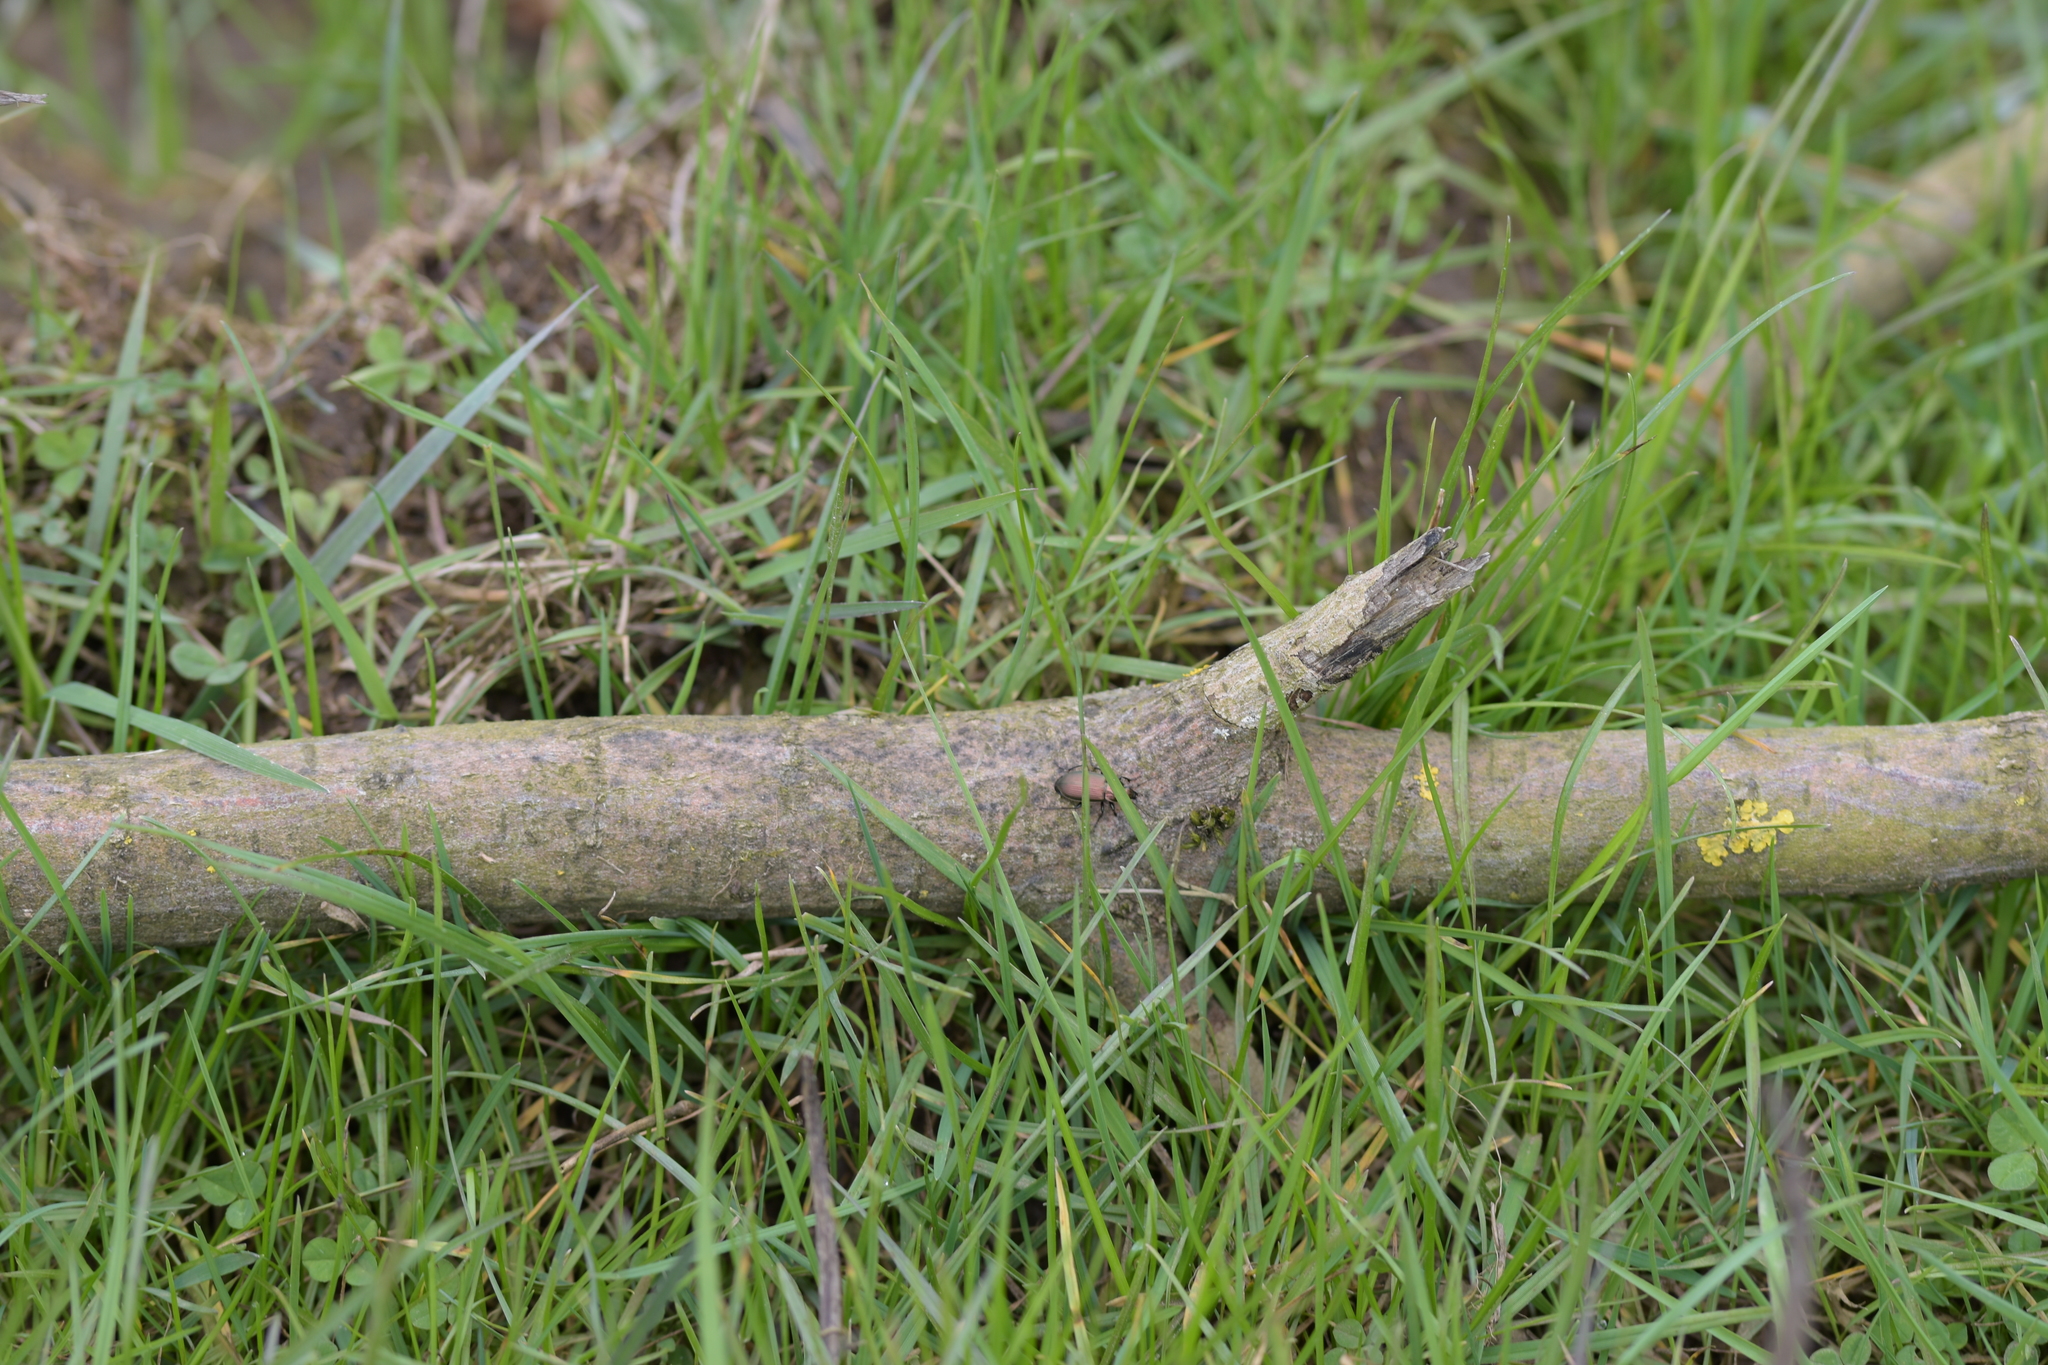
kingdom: Plantae
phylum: Tracheophyta
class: Magnoliopsida
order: Lamiales
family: Plantaginaceae
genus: Veronica
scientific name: Veronica sublobata
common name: False ivy-leaved speedwell
